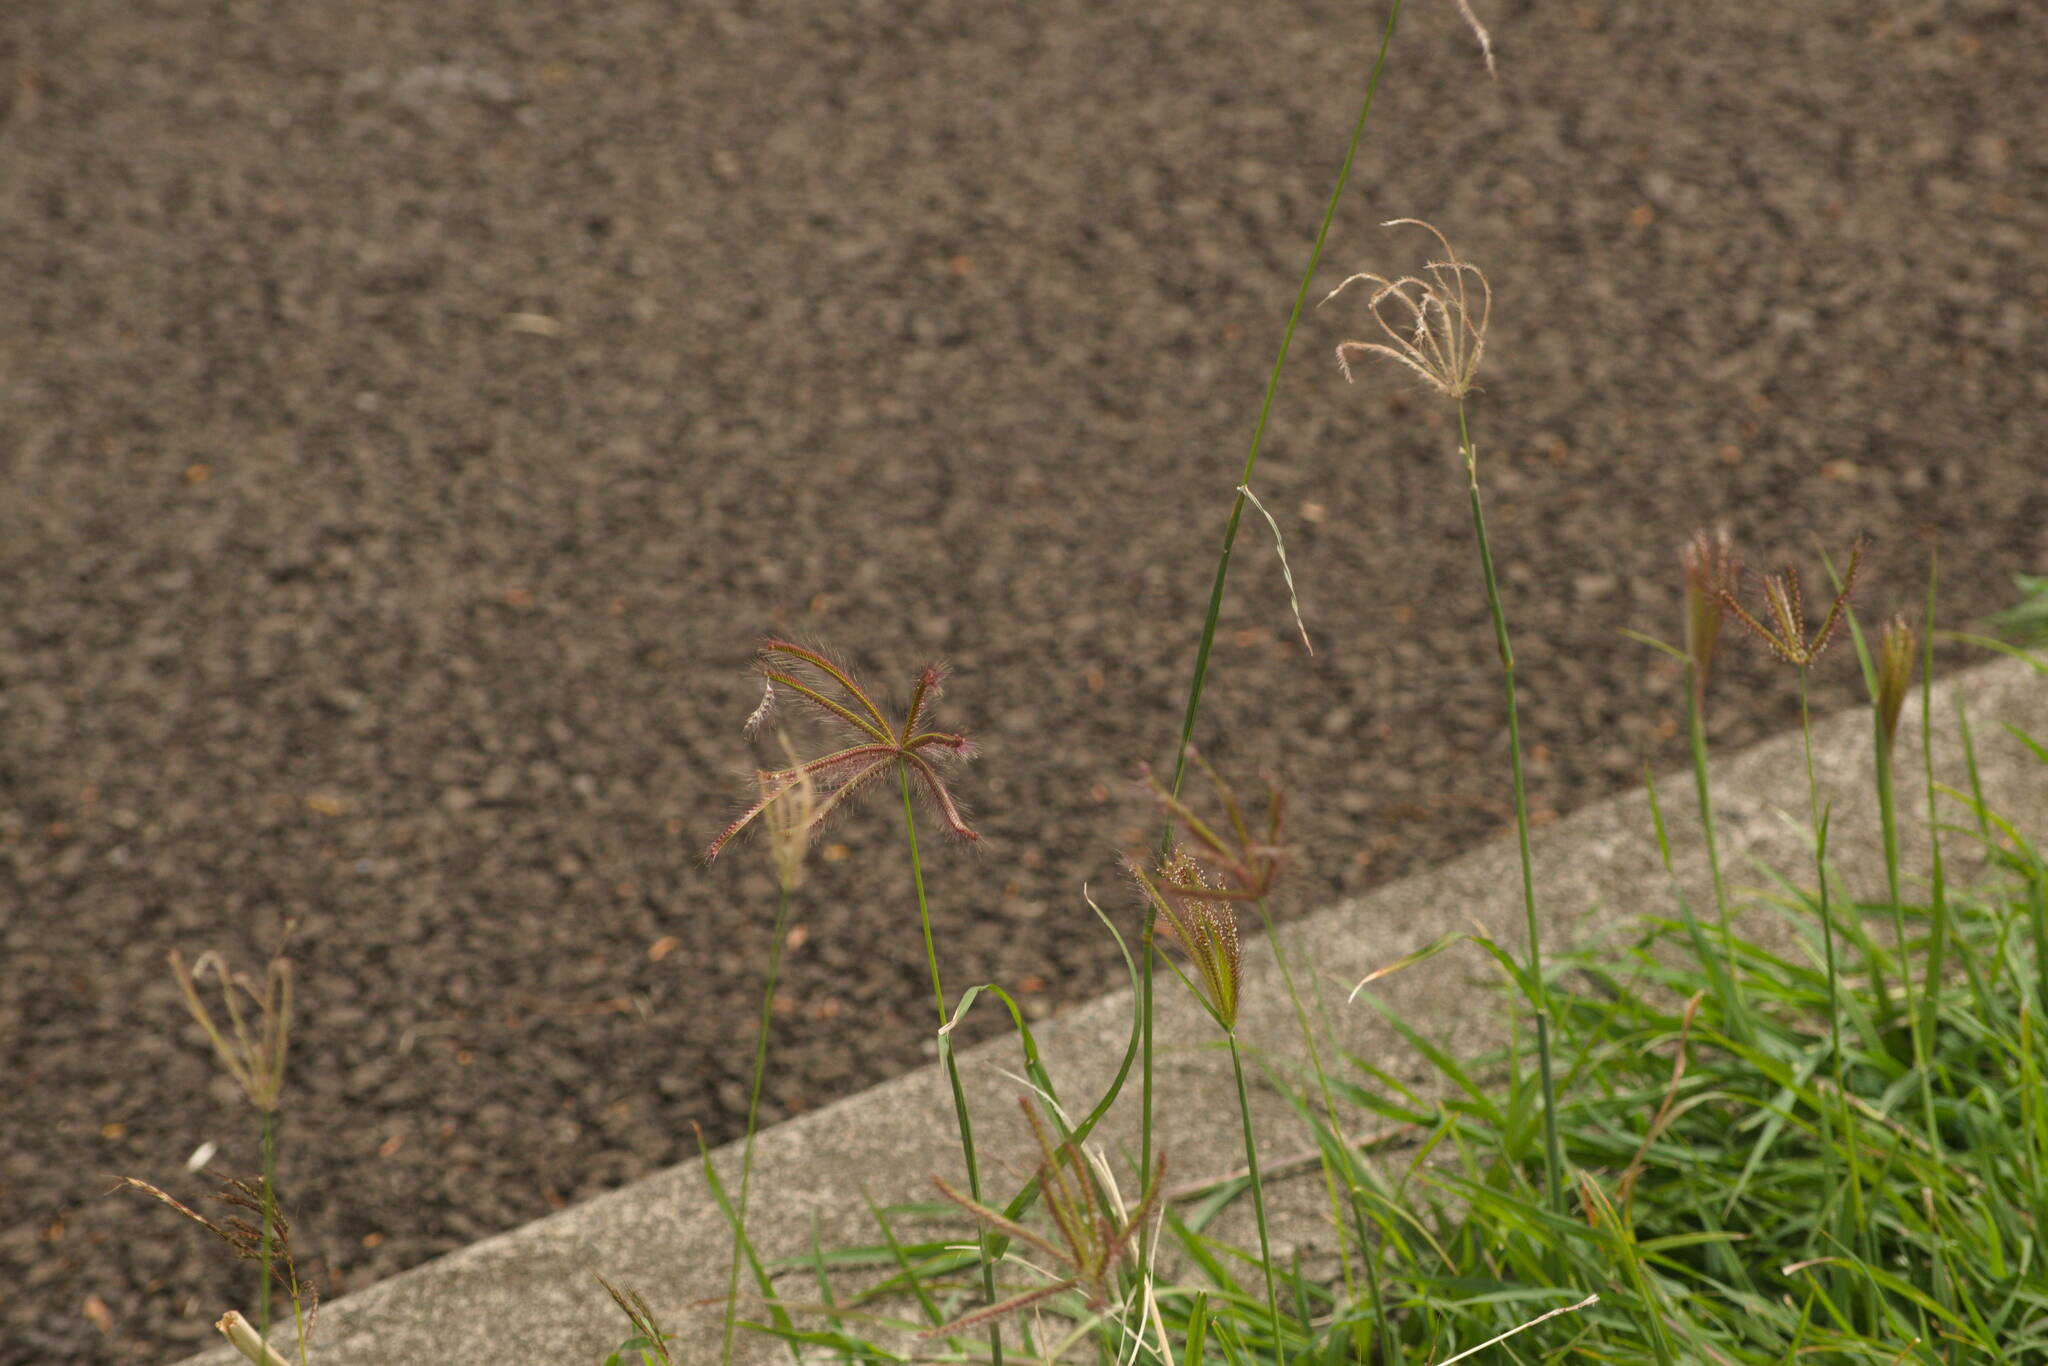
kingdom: Plantae
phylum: Tracheophyta
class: Liliopsida
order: Poales
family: Poaceae
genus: Chloris
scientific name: Chloris barbata
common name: Swollen fingergrass
